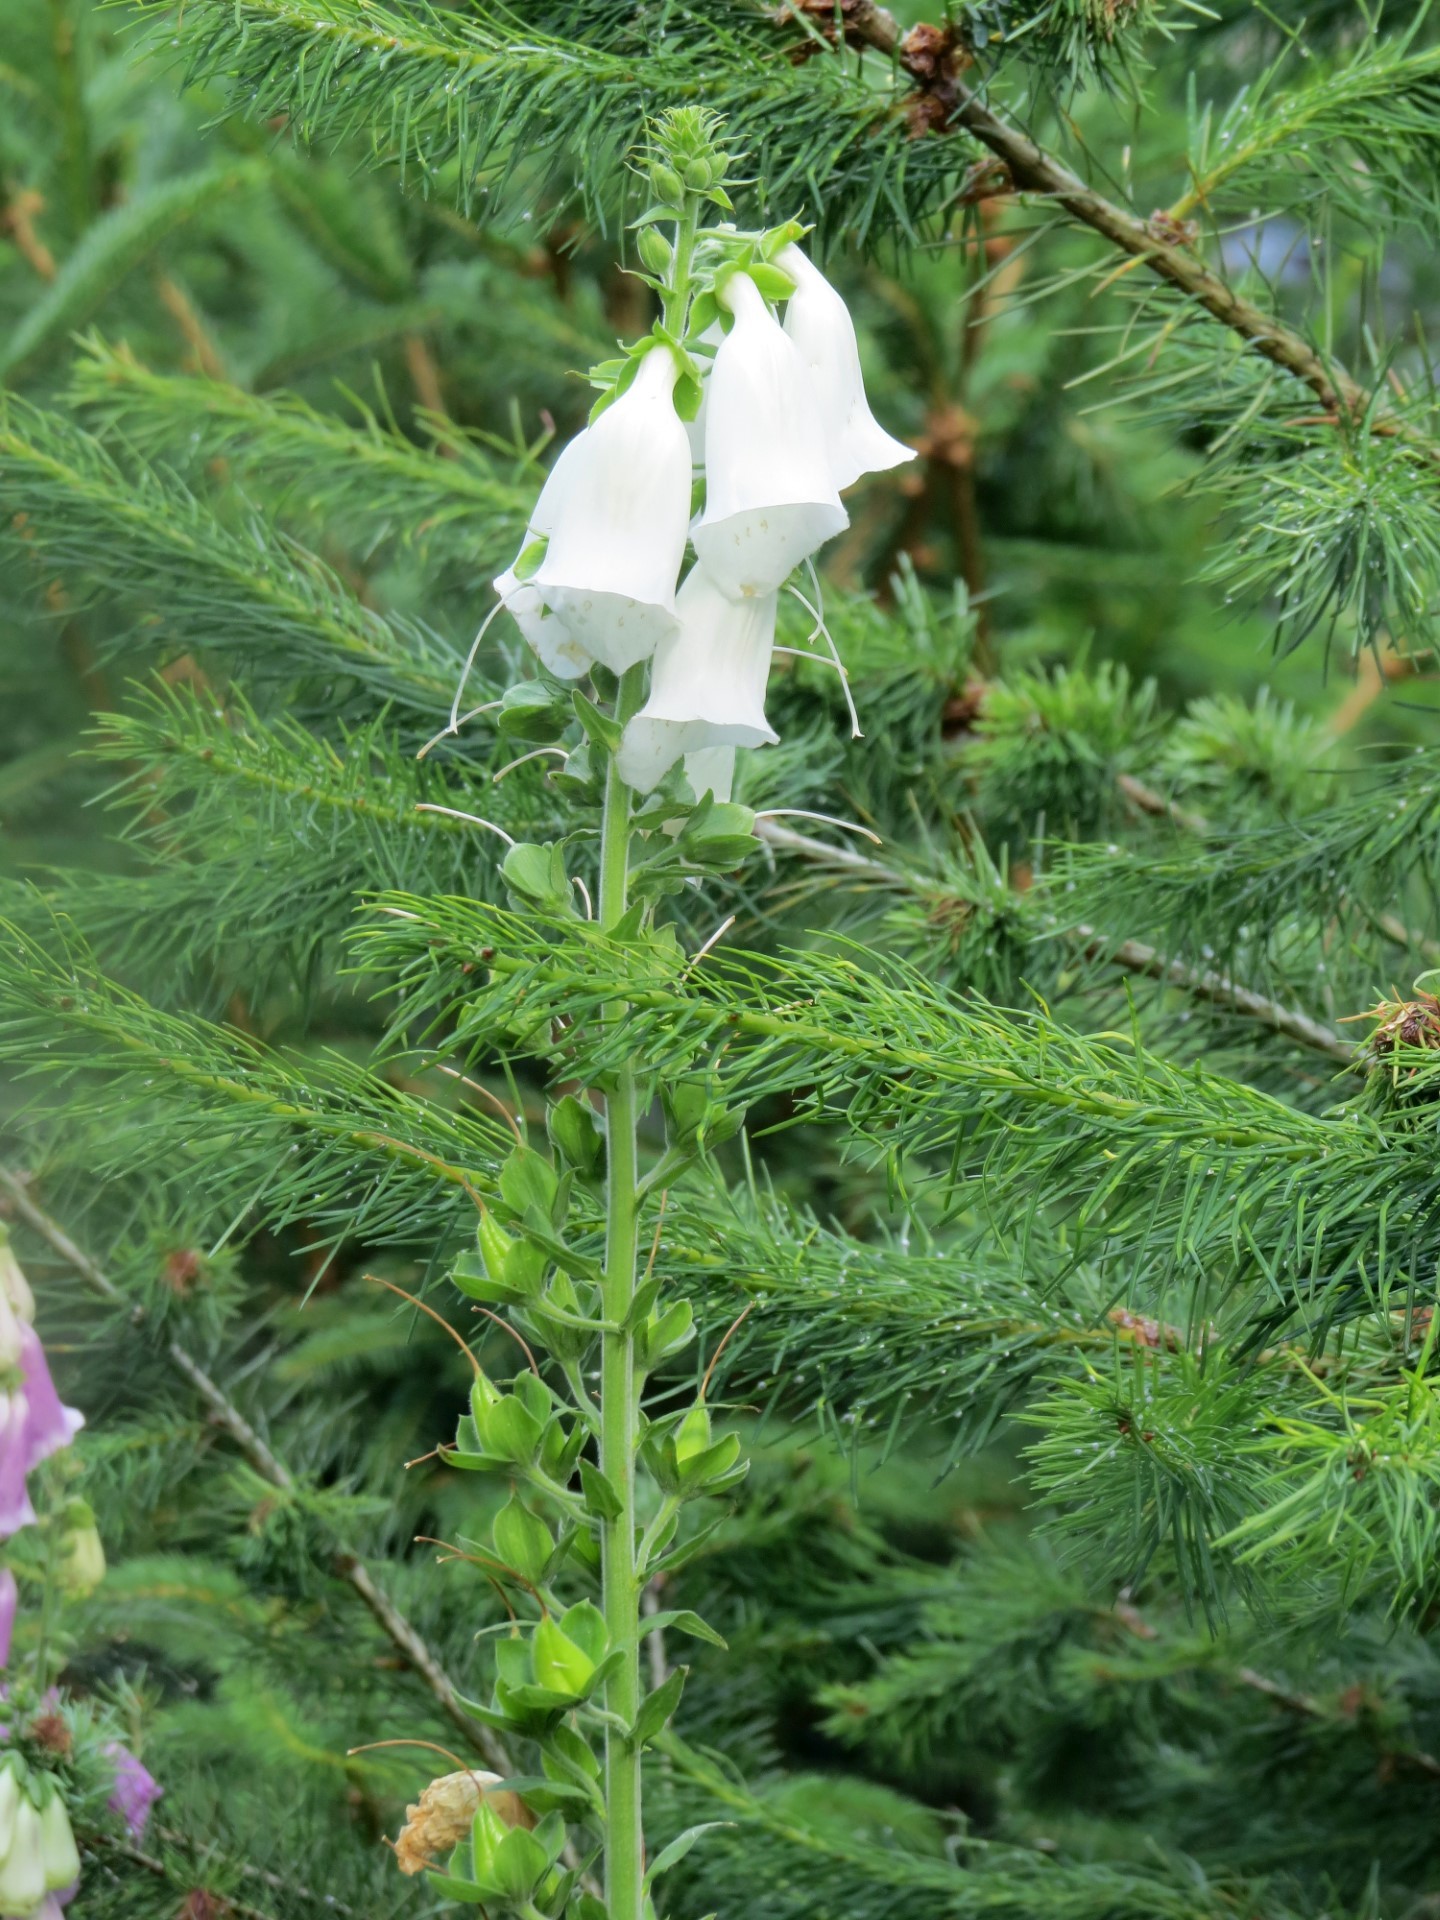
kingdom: Plantae
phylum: Tracheophyta
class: Magnoliopsida
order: Lamiales
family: Plantaginaceae
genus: Digitalis
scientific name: Digitalis purpurea
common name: Foxglove
